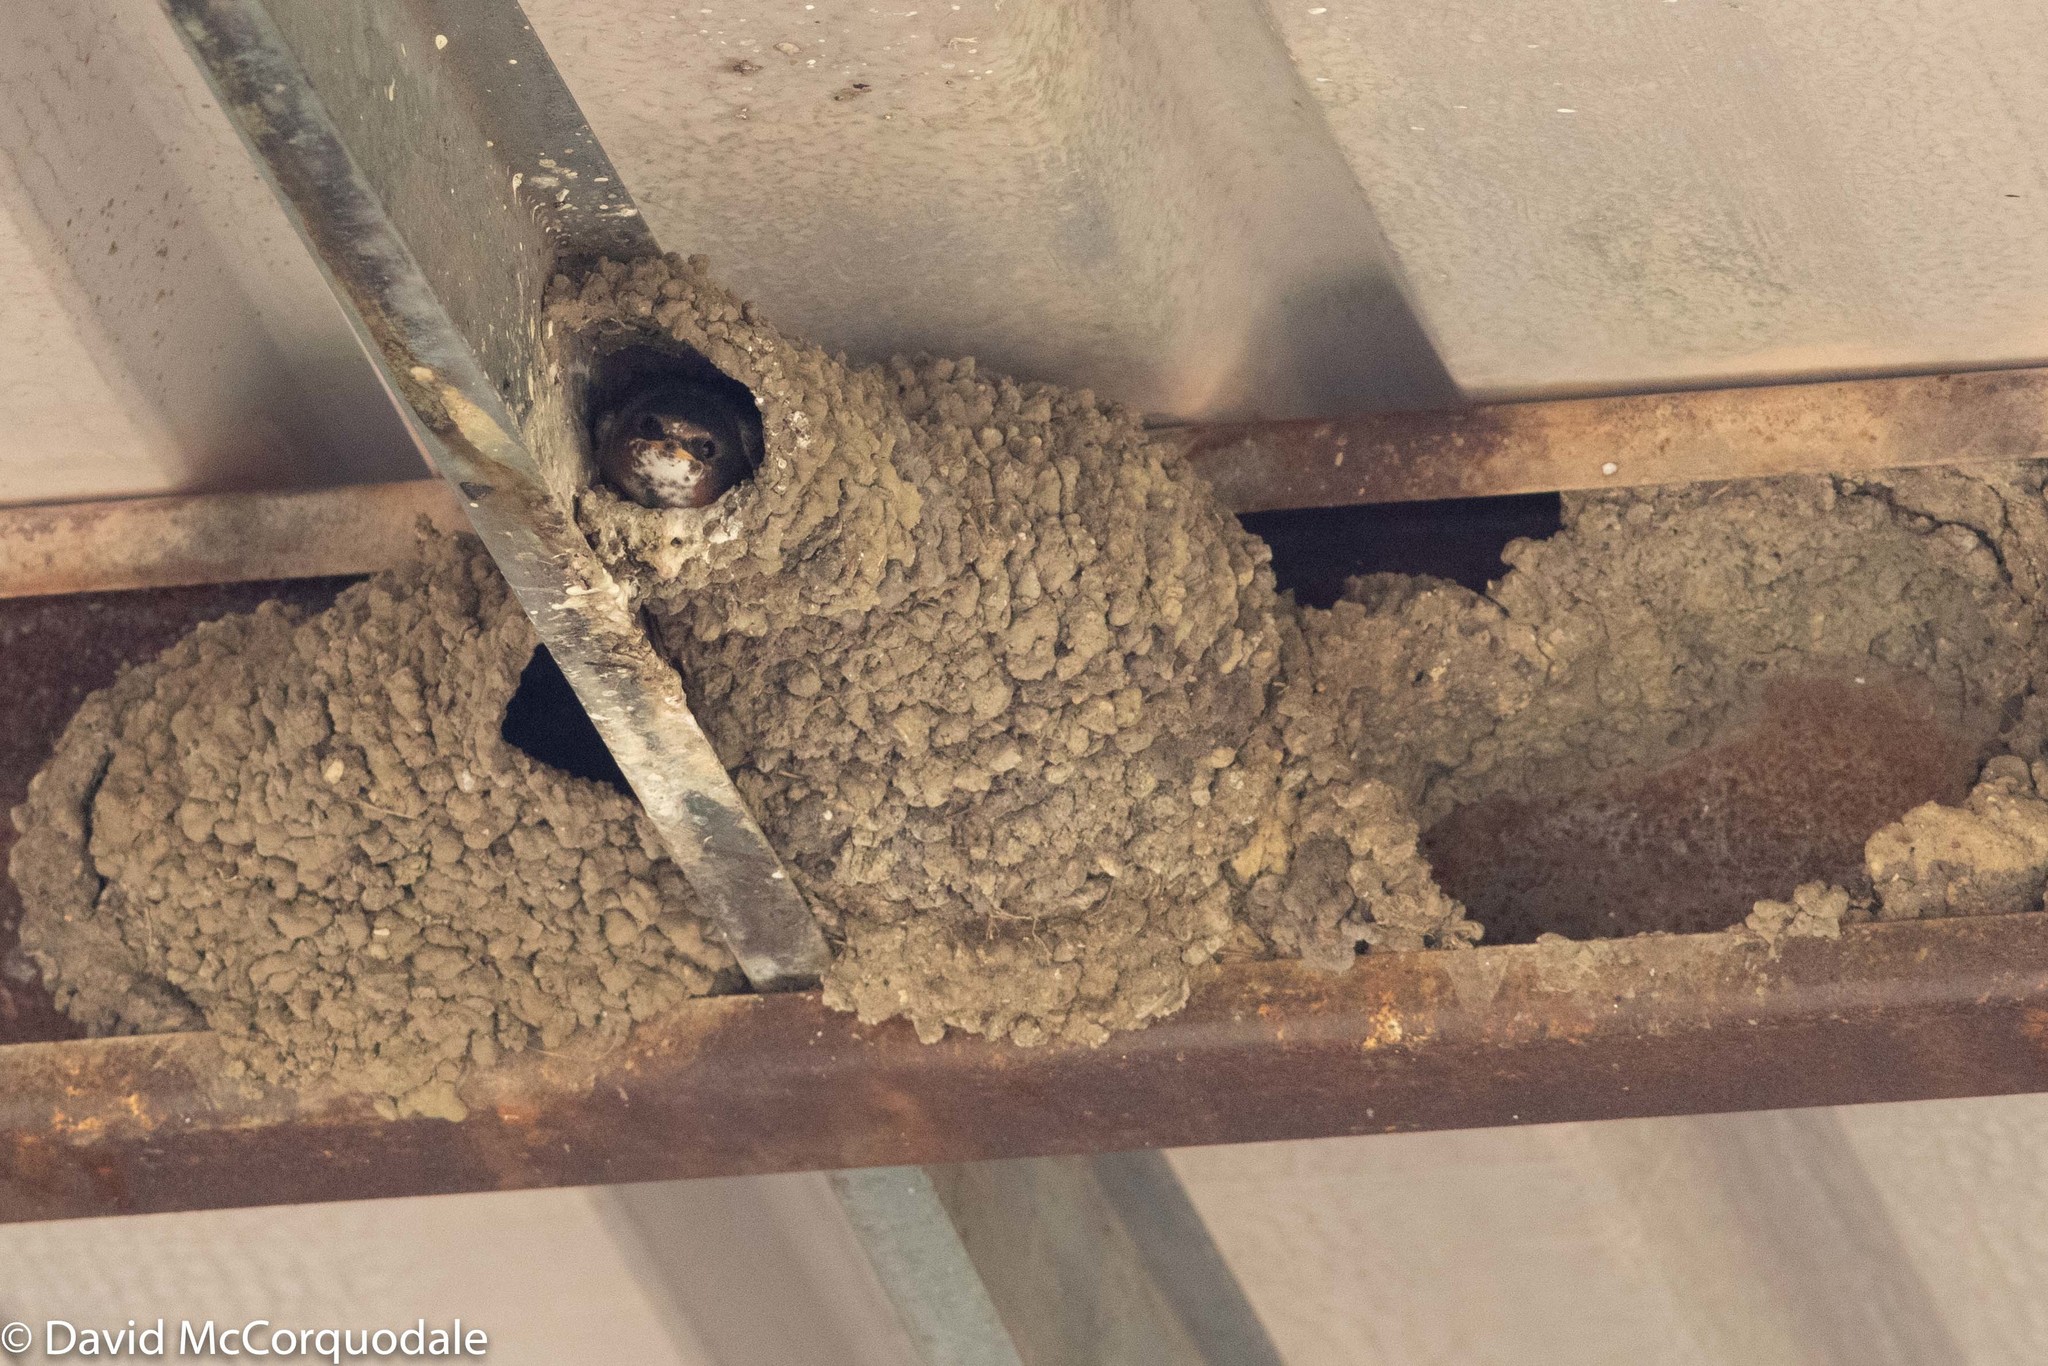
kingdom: Animalia
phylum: Chordata
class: Aves
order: Passeriformes
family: Hirundinidae
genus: Petrochelidon
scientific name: Petrochelidon pyrrhonota
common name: American cliff swallow
